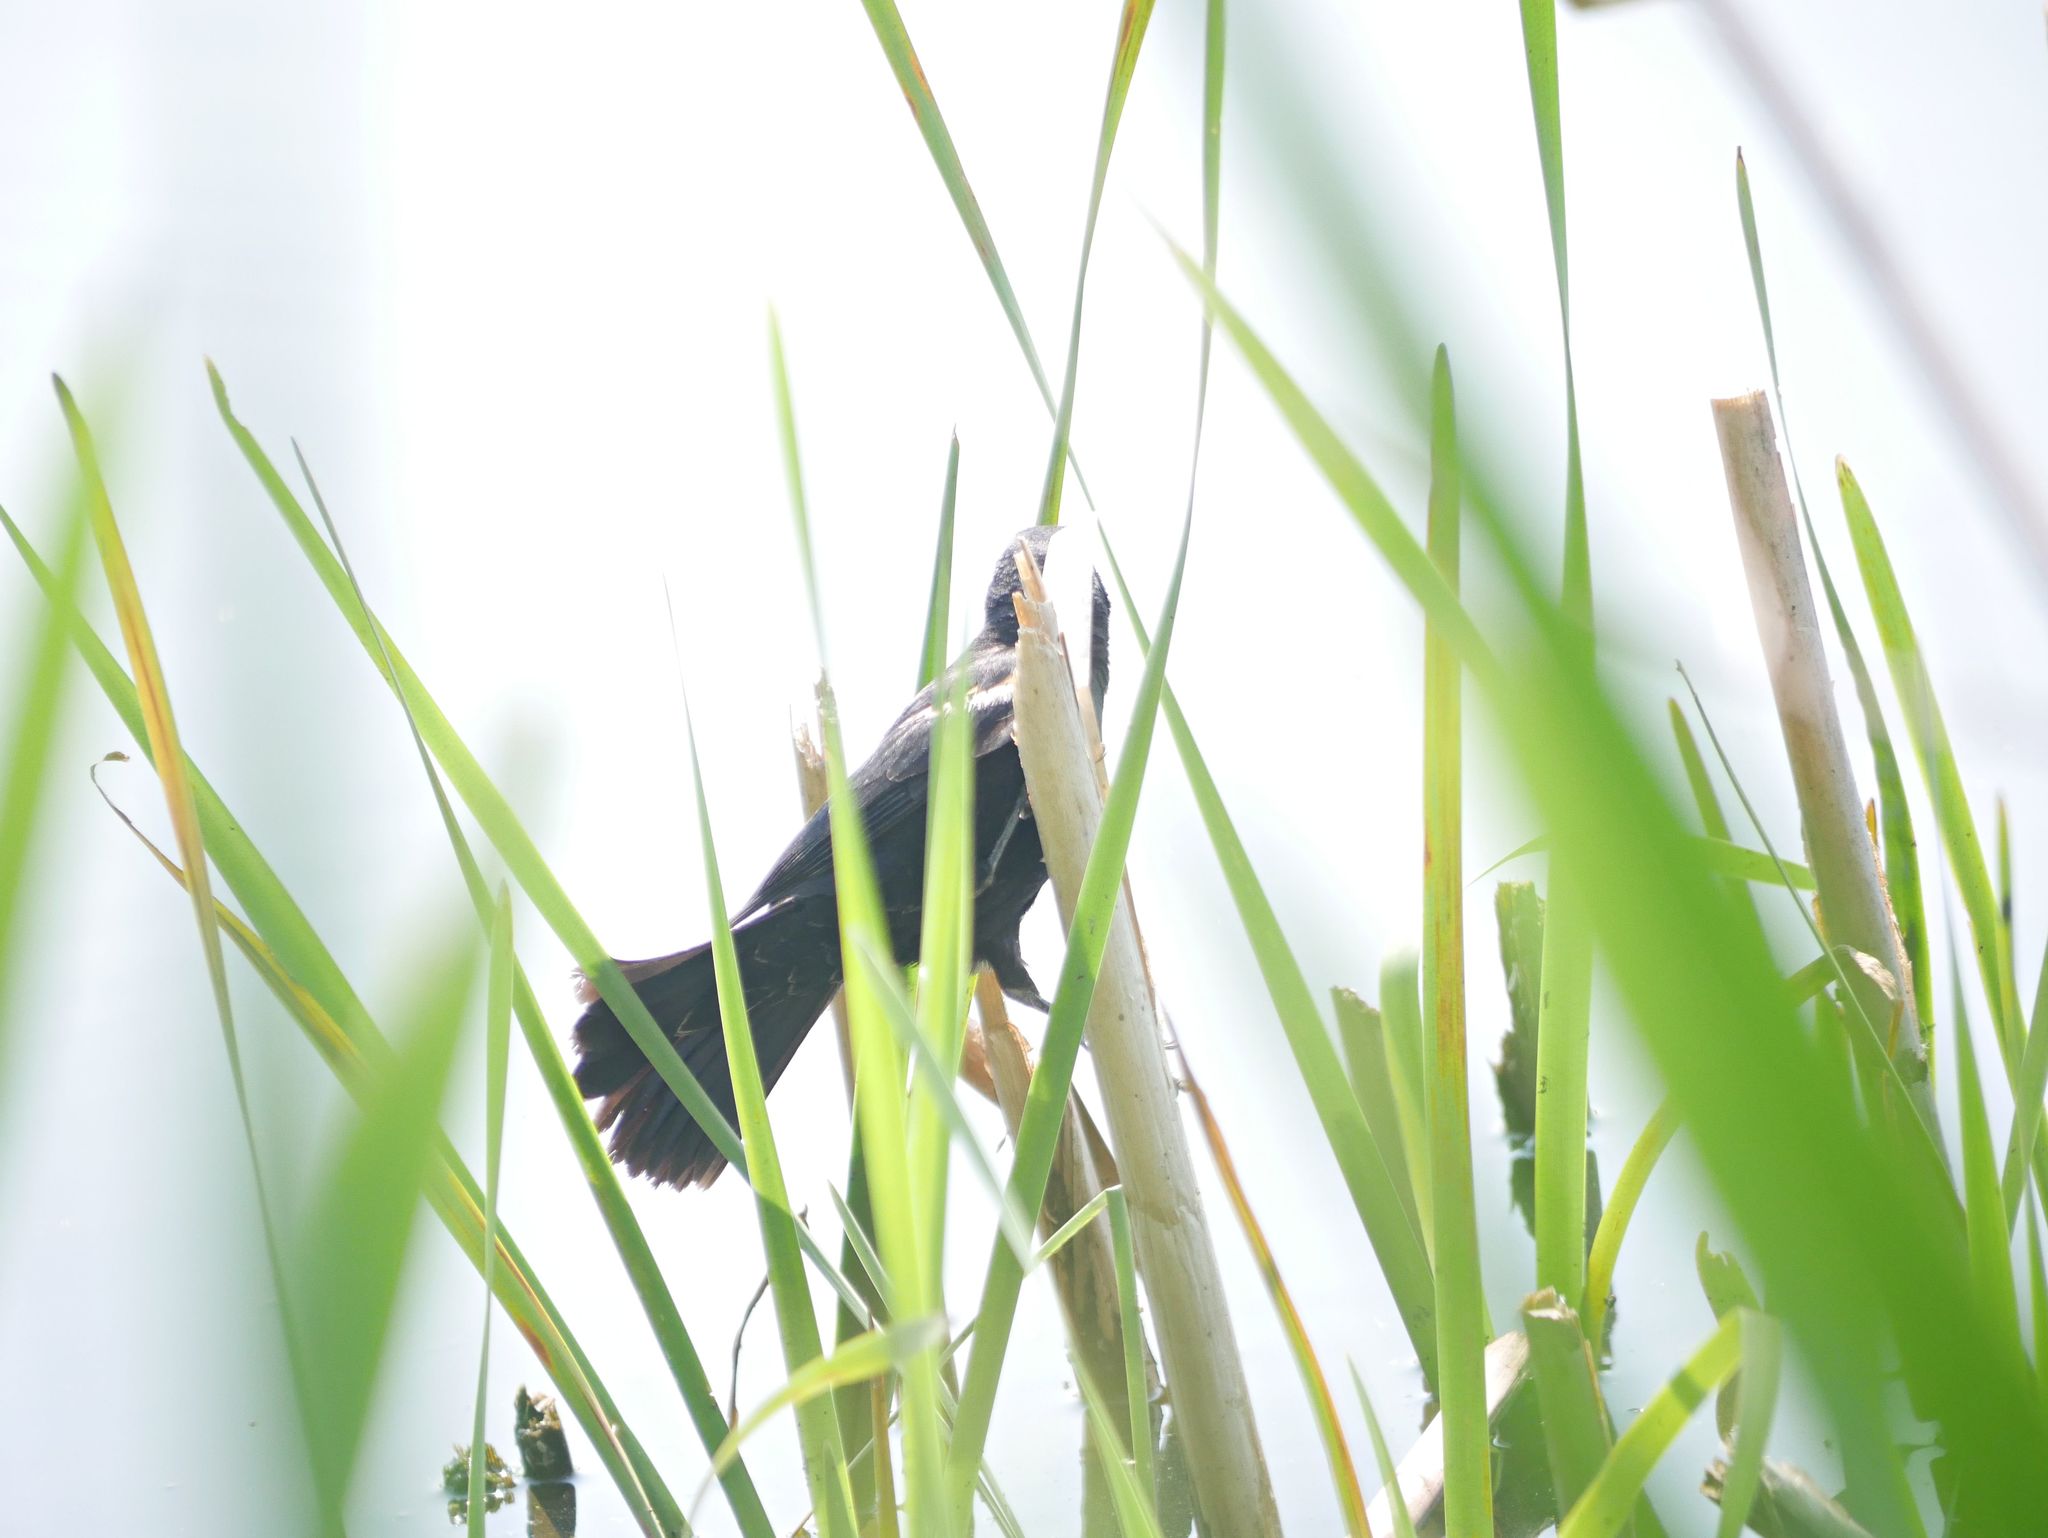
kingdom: Animalia
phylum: Chordata
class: Aves
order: Passeriformes
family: Icteridae
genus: Agelaius
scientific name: Agelaius phoeniceus
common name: Red-winged blackbird
